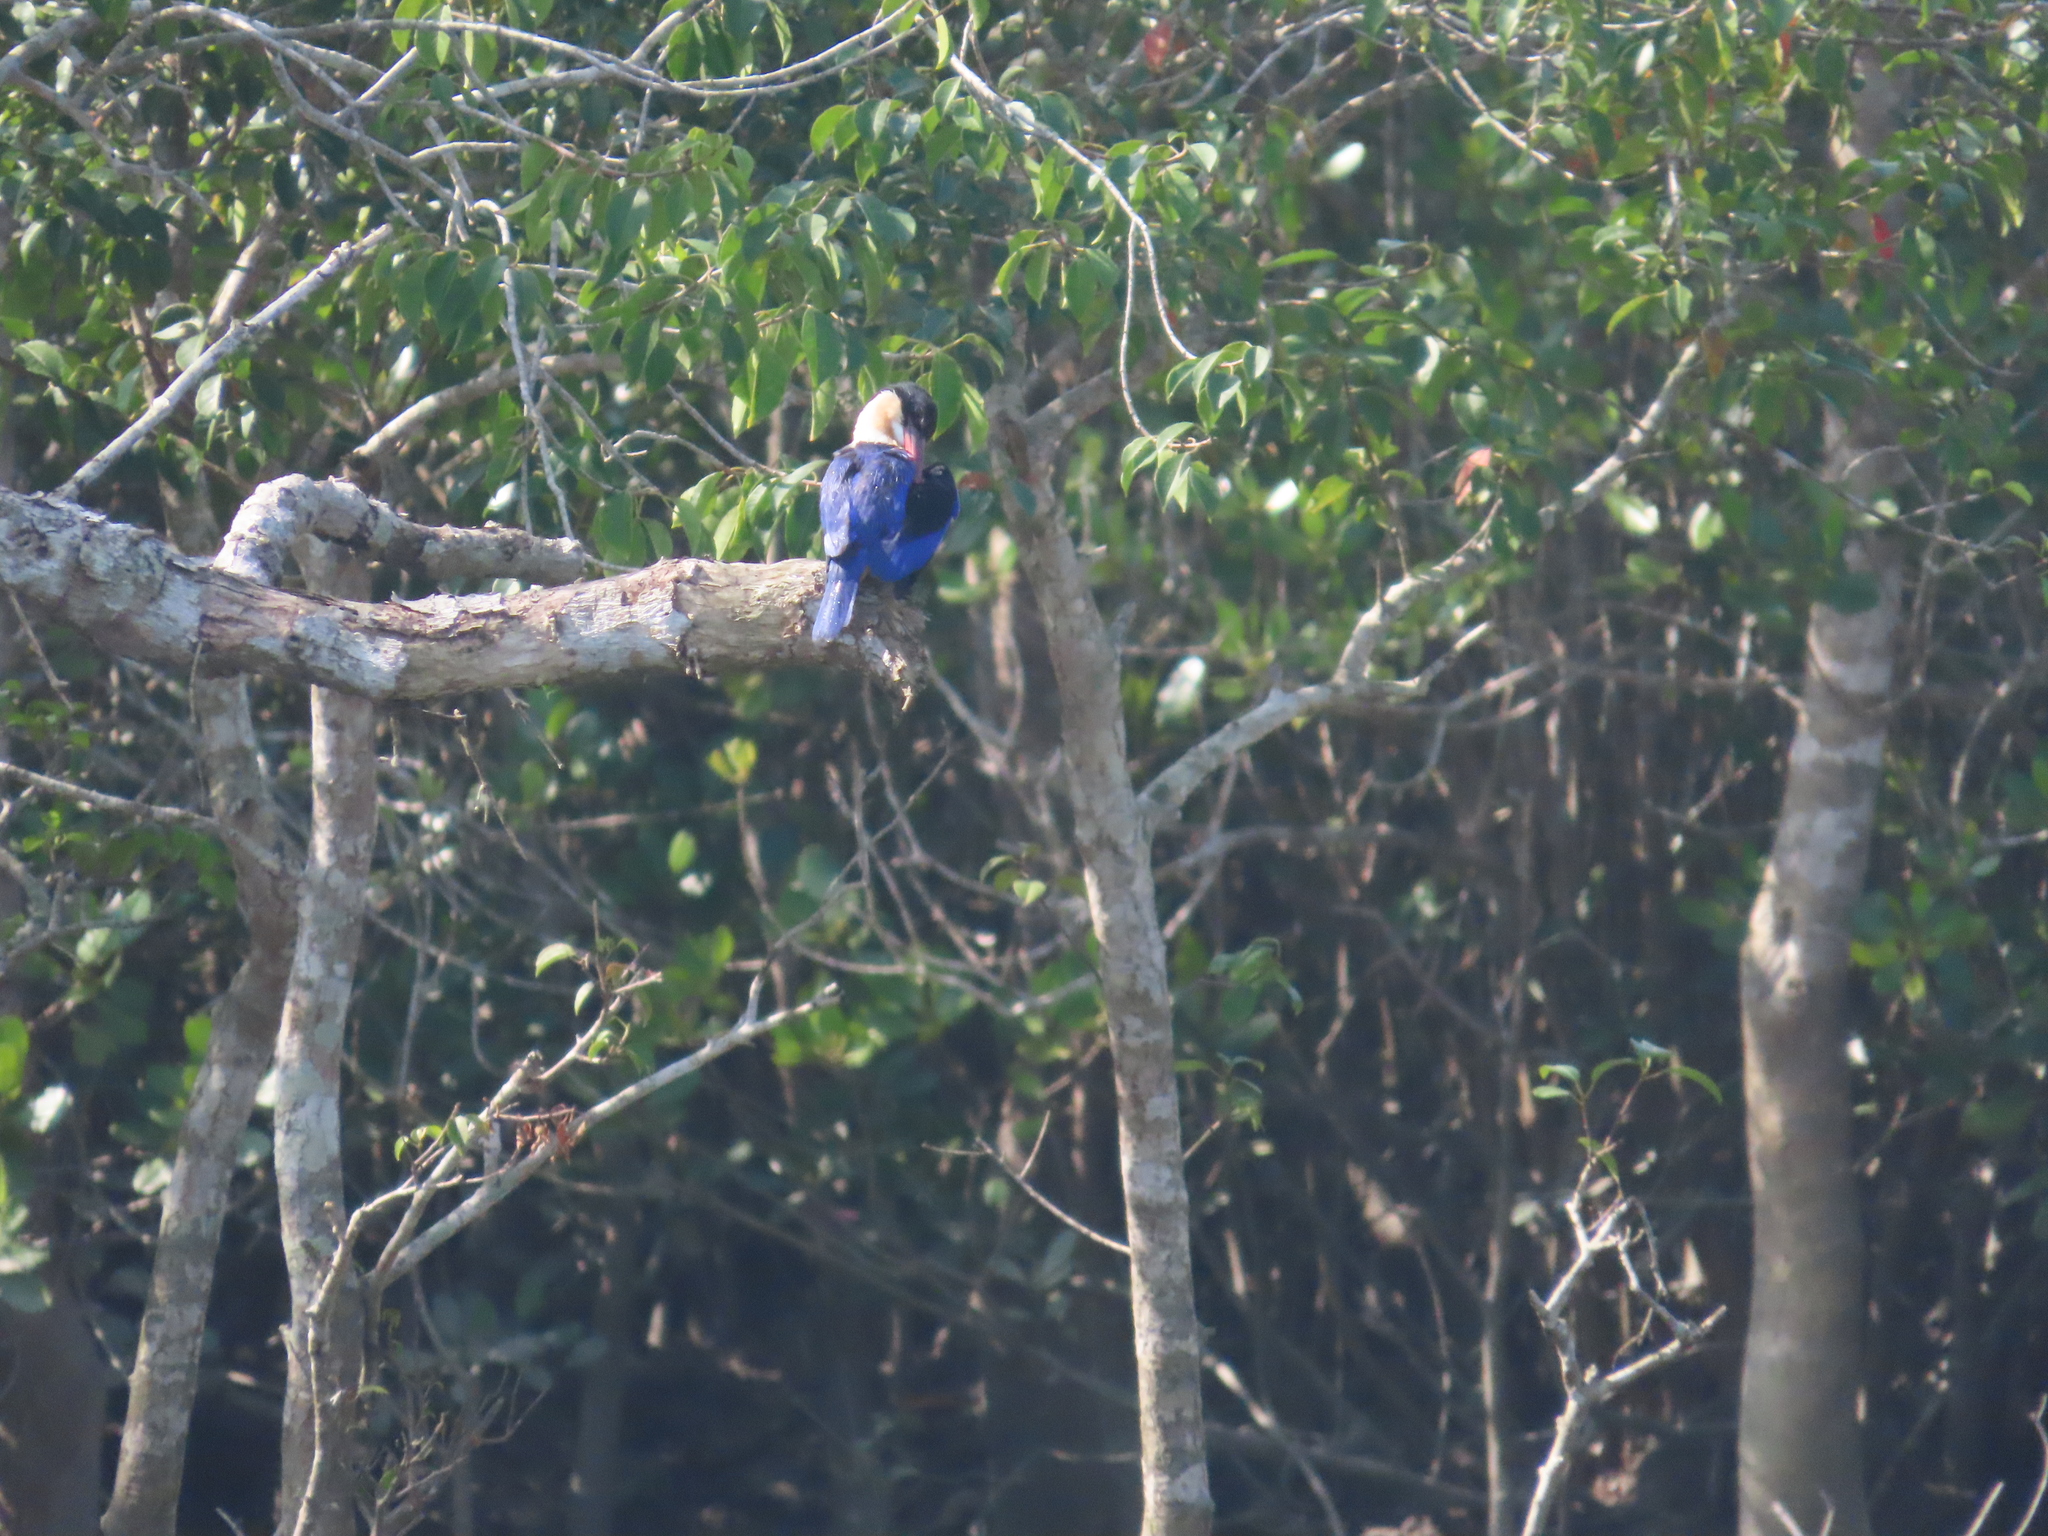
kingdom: Animalia
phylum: Chordata
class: Aves
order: Coraciiformes
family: Alcedinidae
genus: Halcyon
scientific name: Halcyon pileata
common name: Black-capped kingfisher
